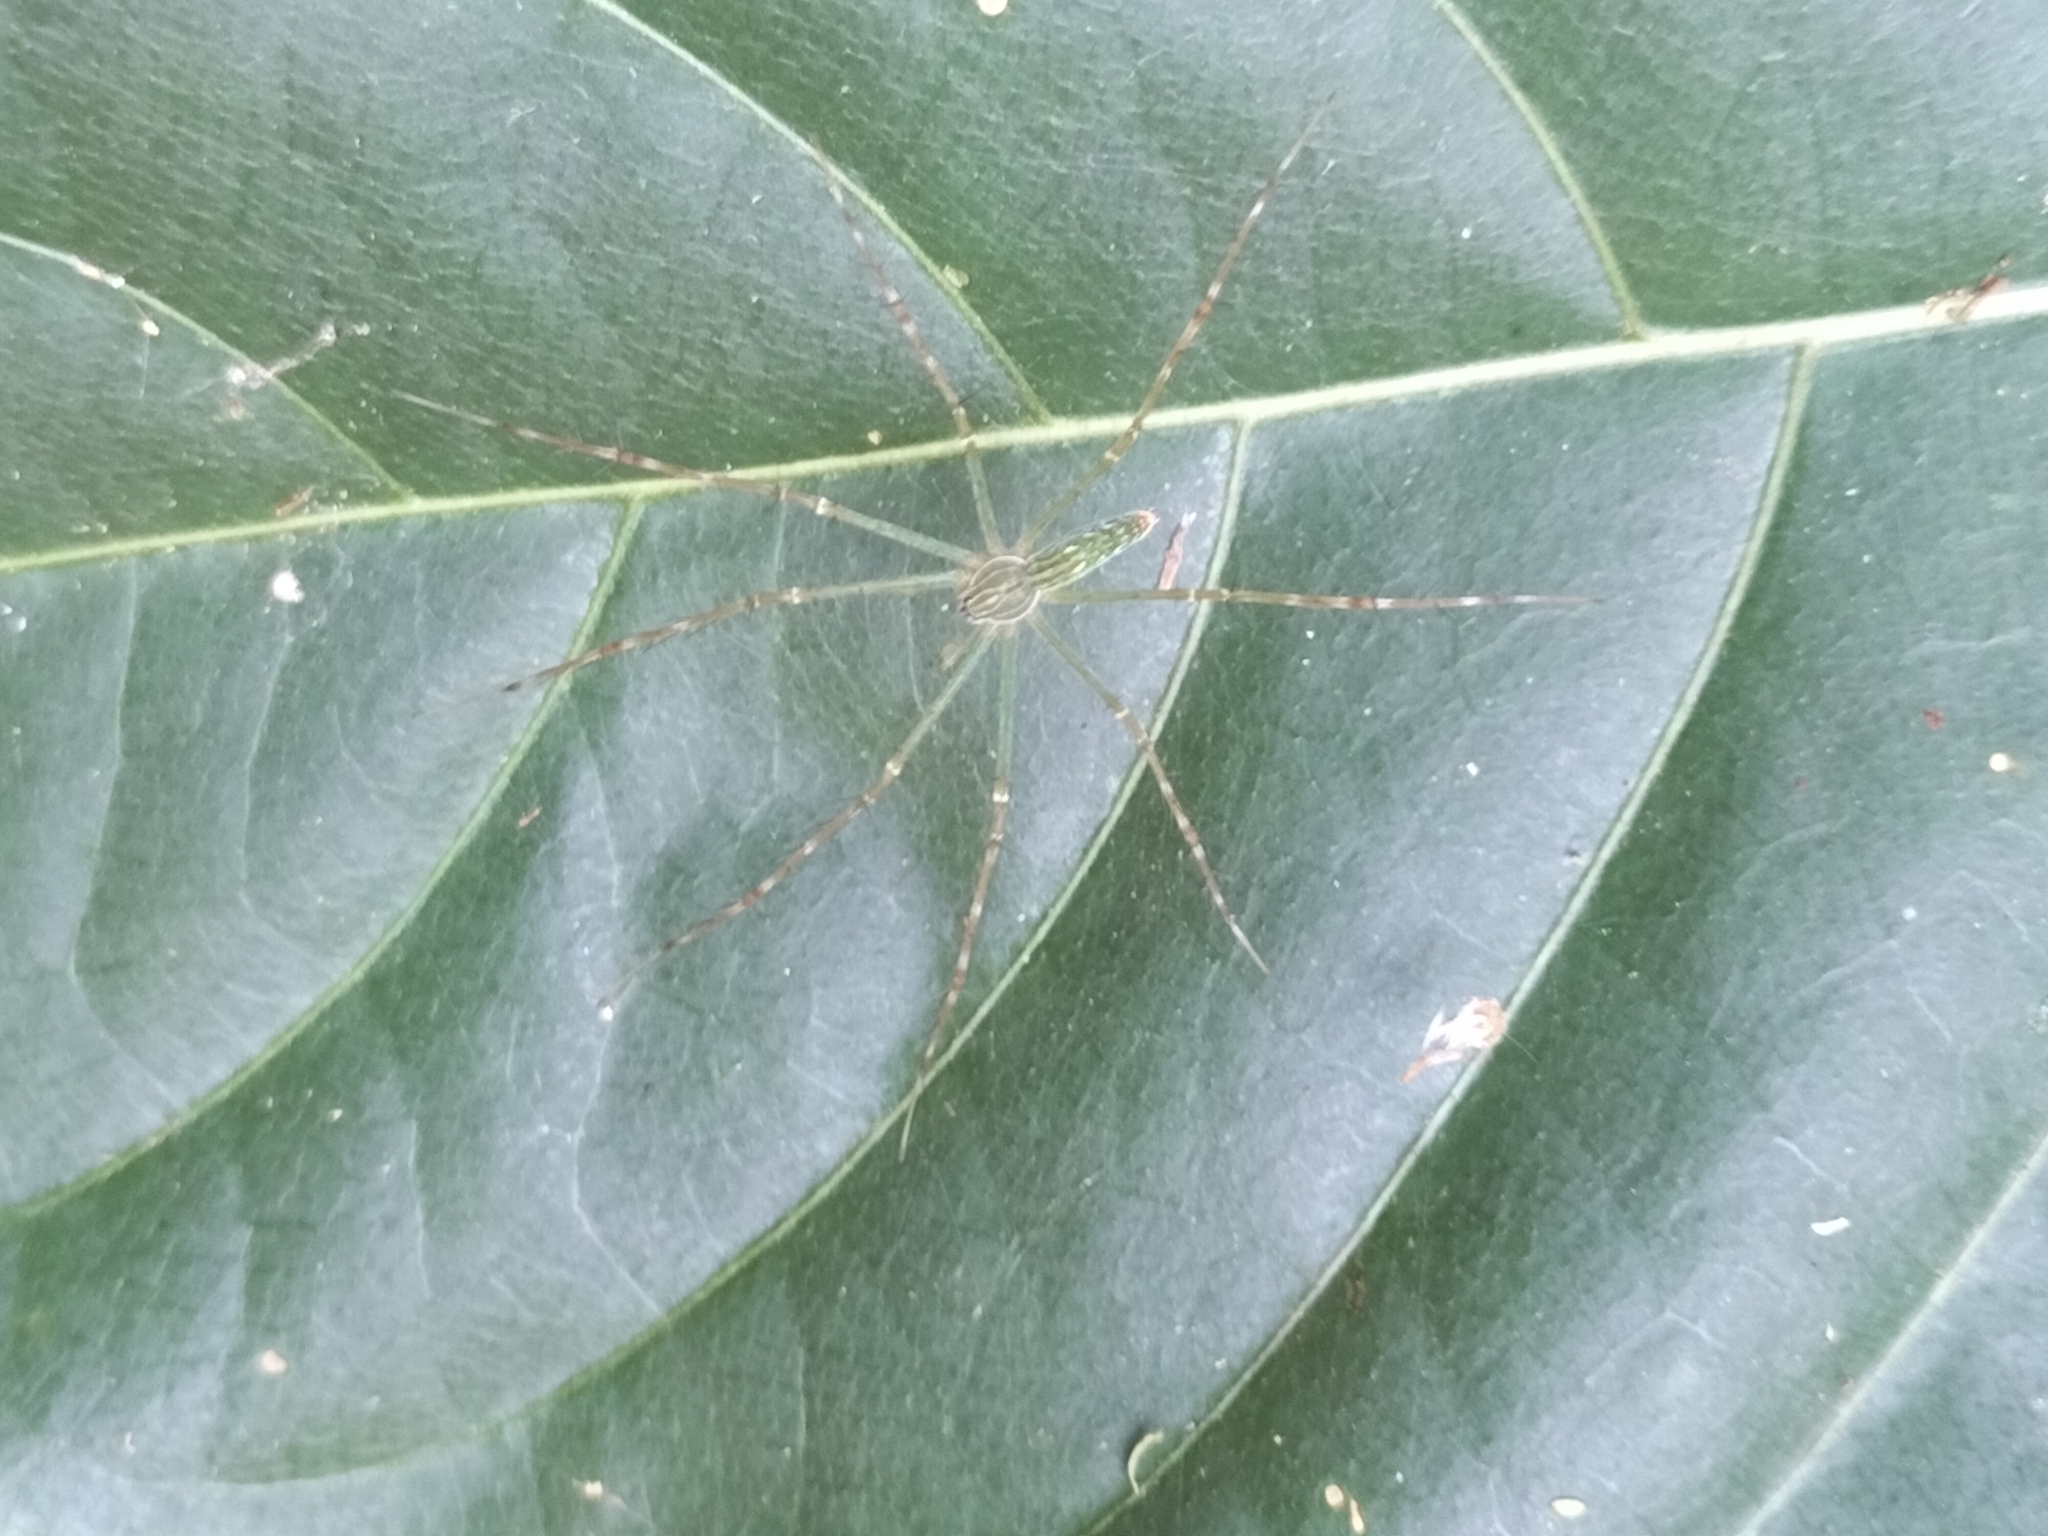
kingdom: Animalia
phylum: Arthropoda
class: Arachnida
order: Araneae
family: Pisauridae
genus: Hygropoda
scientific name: Hygropoda lineata
